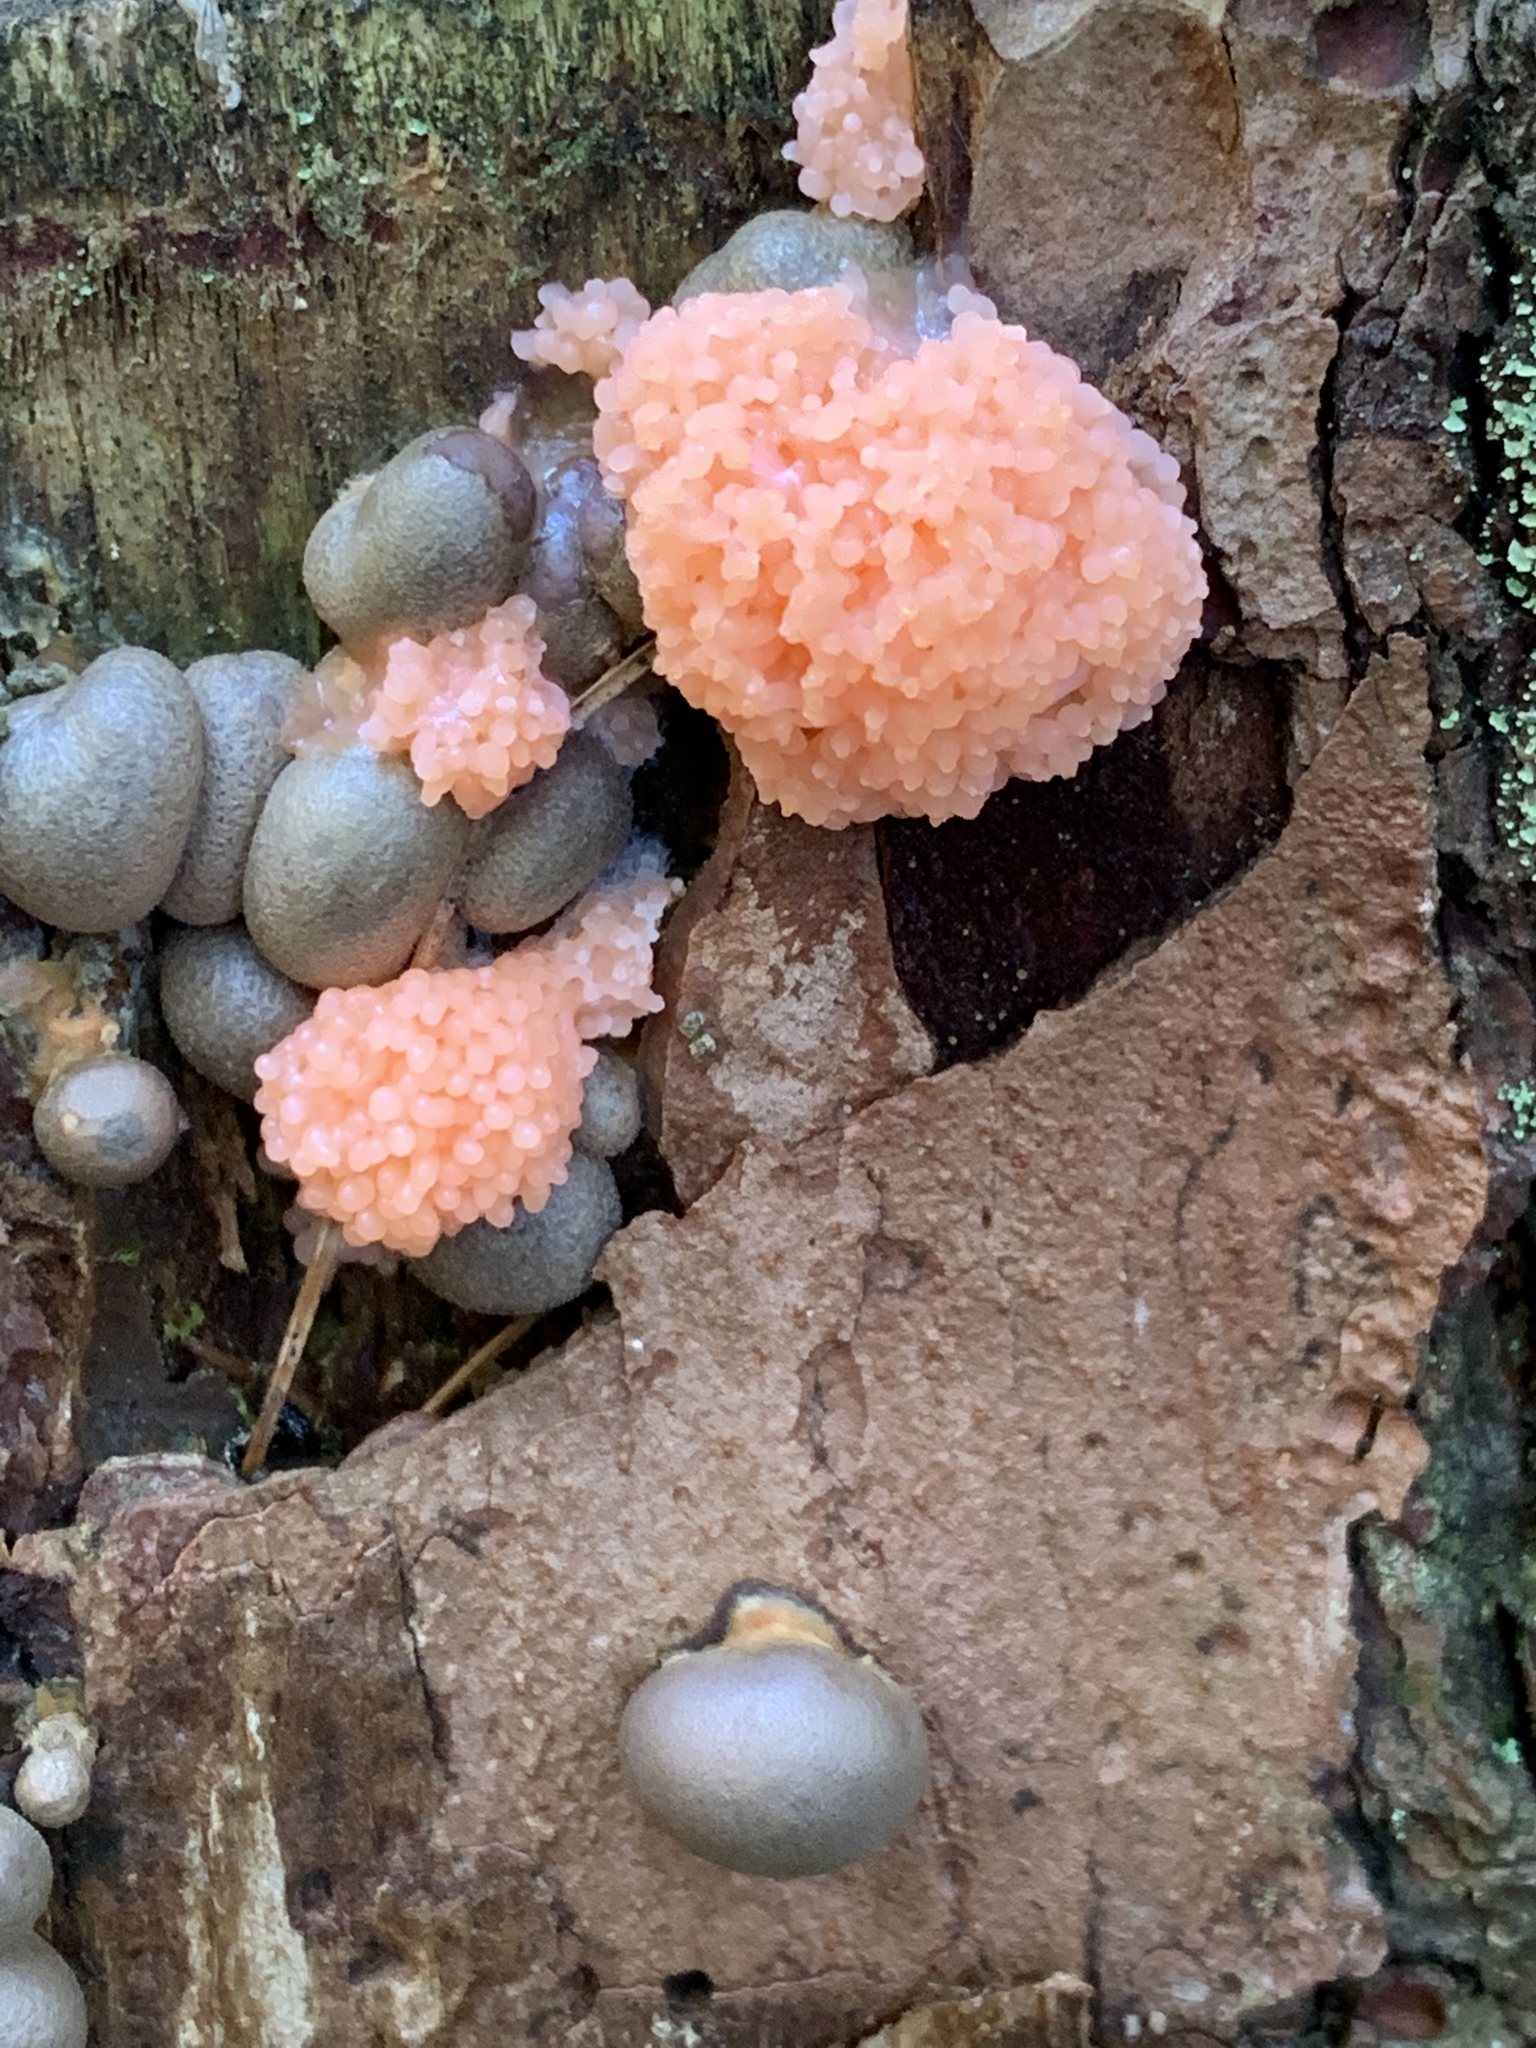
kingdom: Protozoa
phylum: Mycetozoa
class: Myxomycetes
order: Cribrariales
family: Tubiferaceae
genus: Tubifera
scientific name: Tubifera ferruginosa
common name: Red raspberry slime mold
